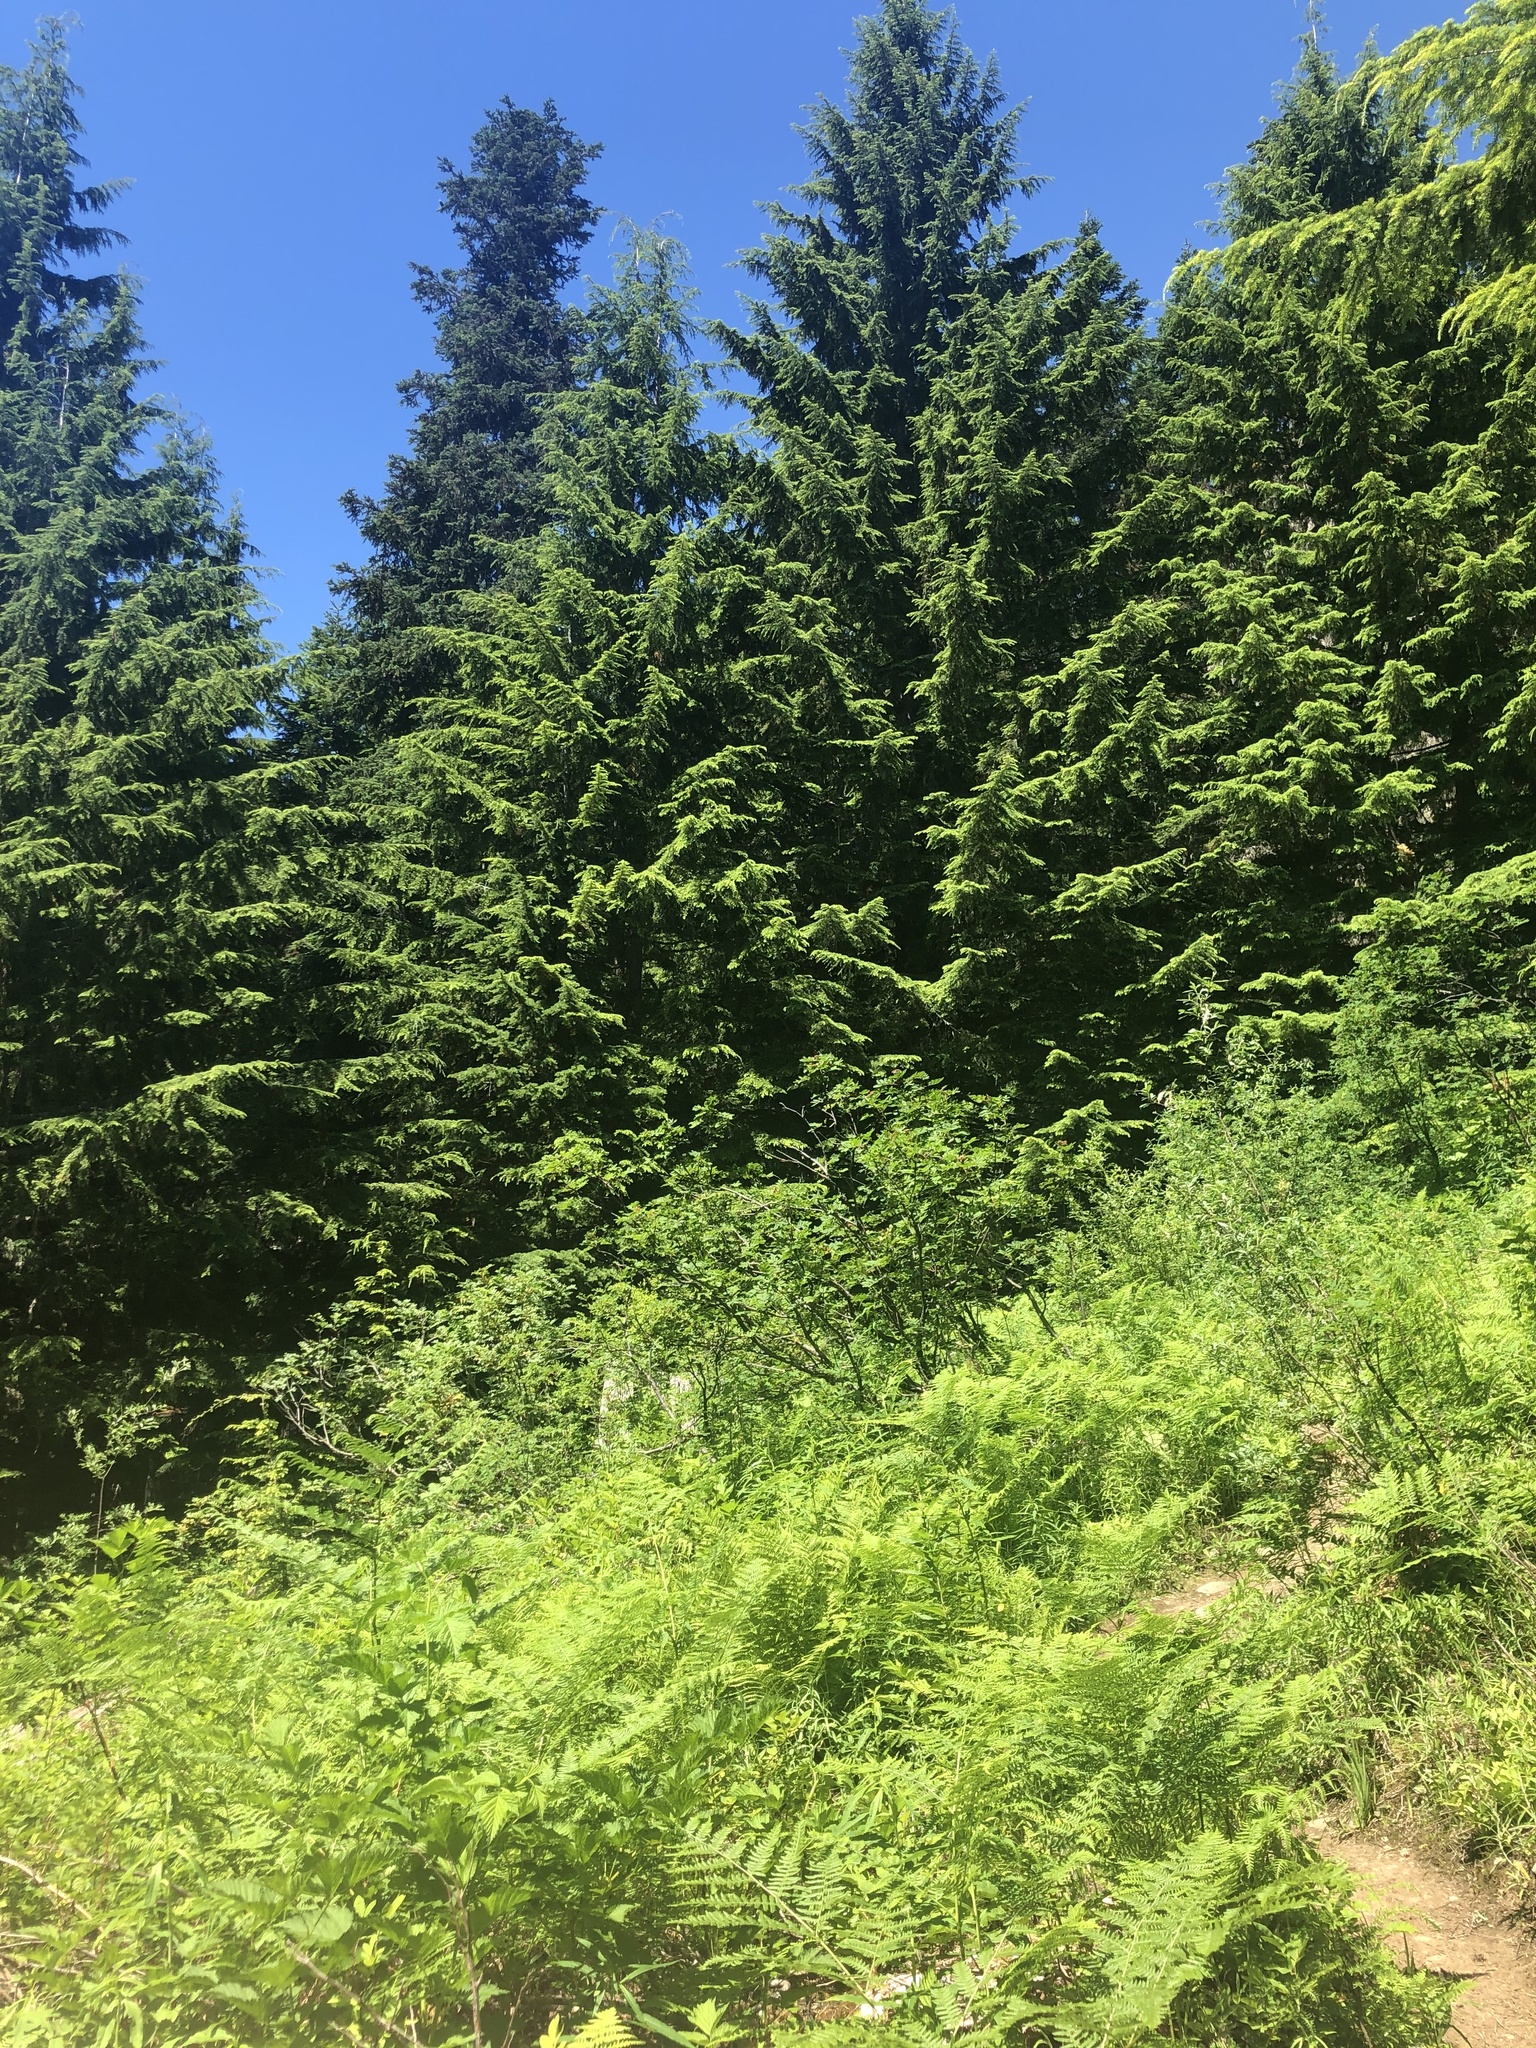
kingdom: Plantae
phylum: Tracheophyta
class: Pinopsida
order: Pinales
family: Pinaceae
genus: Tsuga
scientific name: Tsuga heterophylla
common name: Western hemlock
